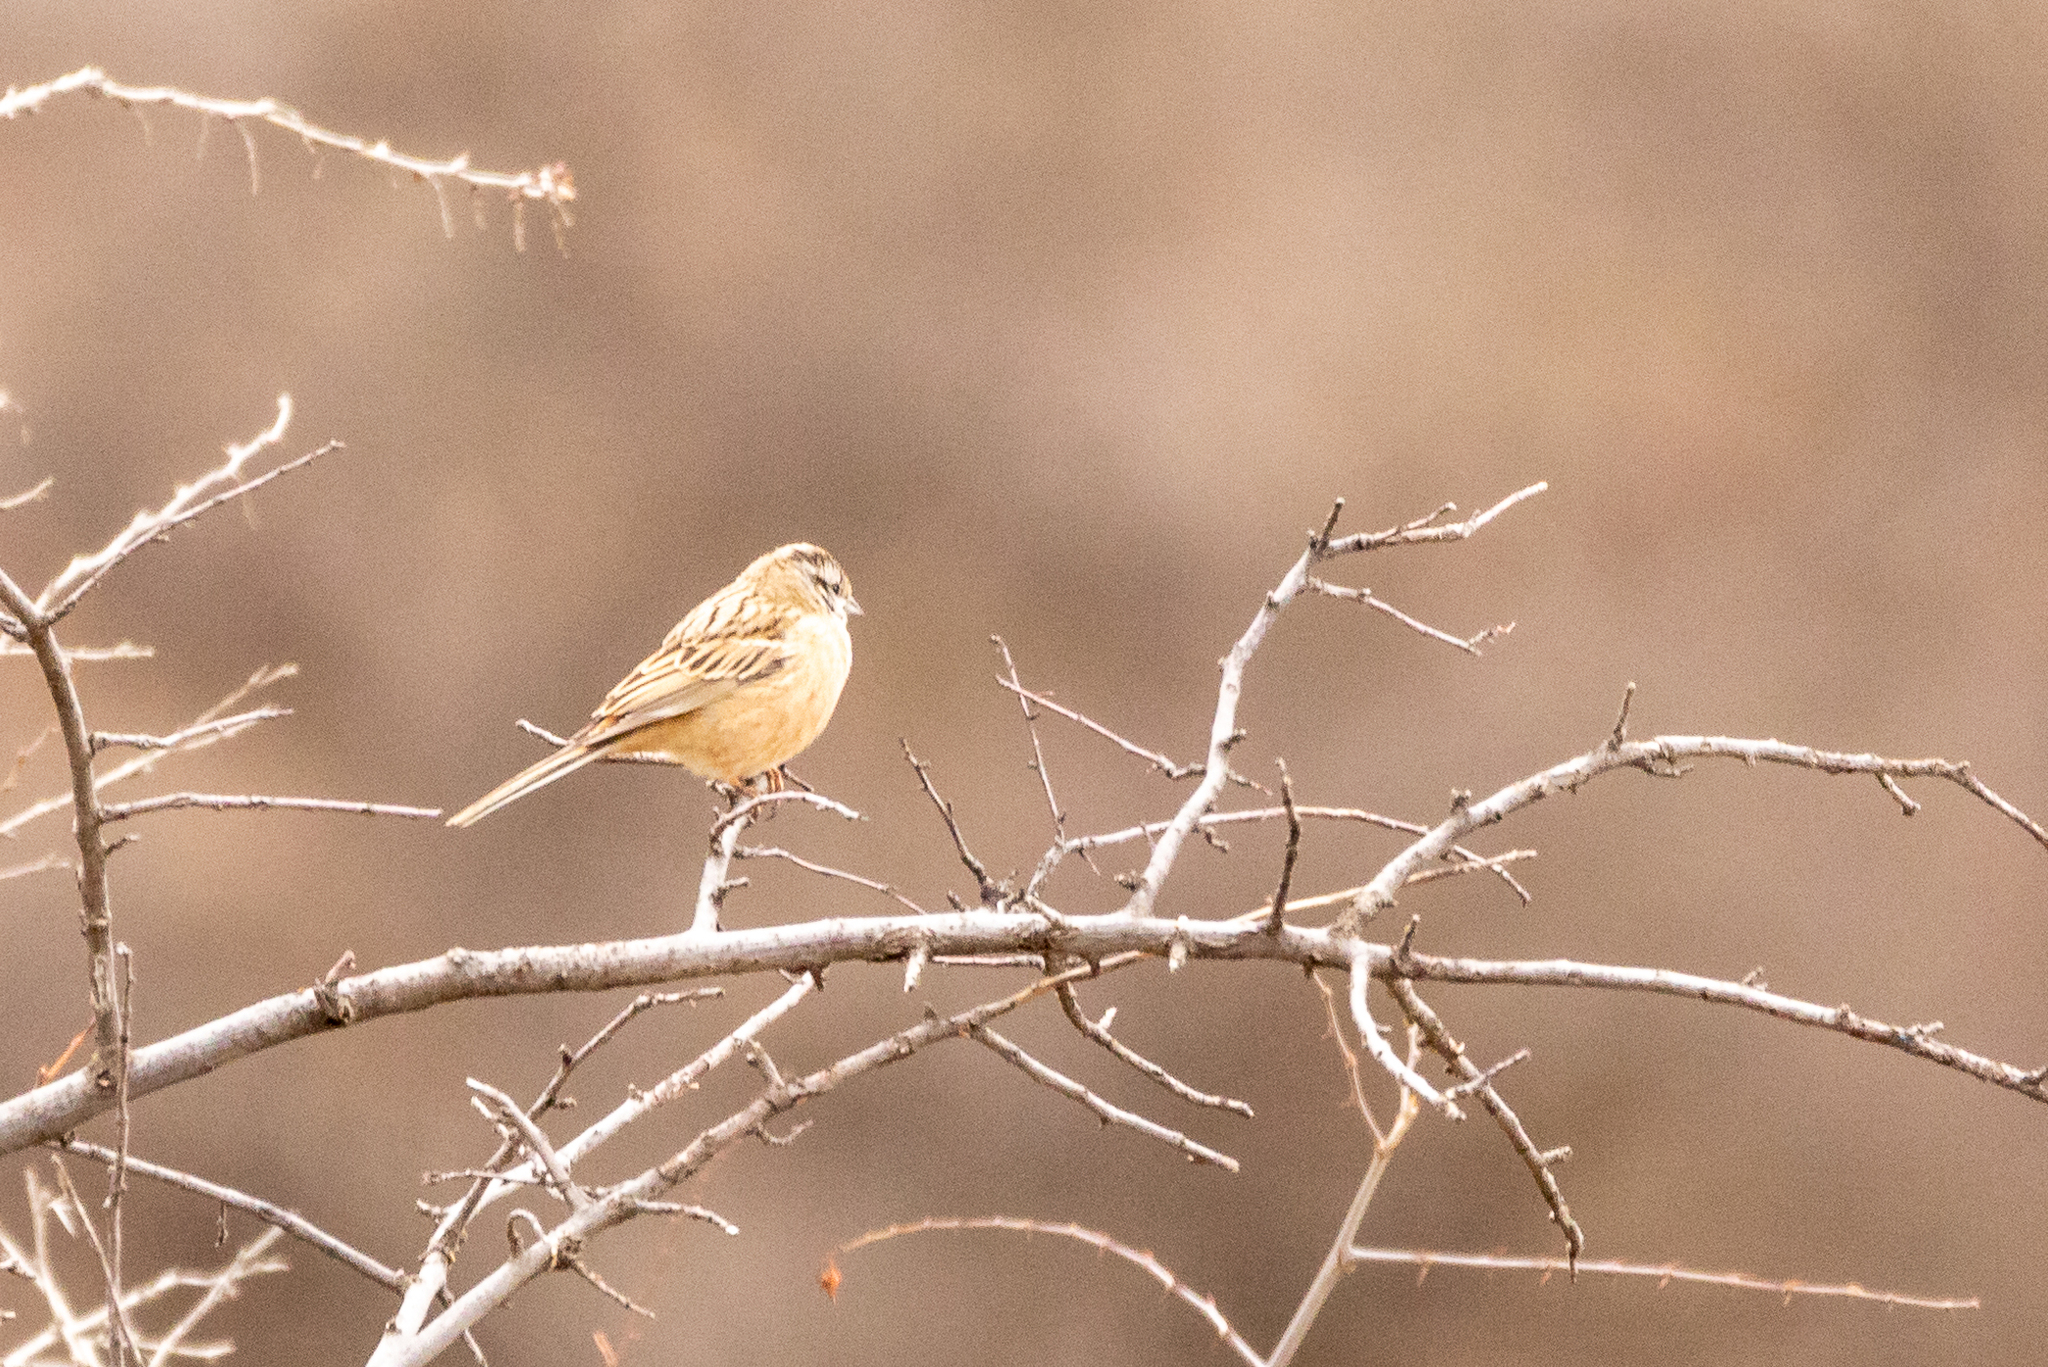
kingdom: Animalia
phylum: Chordata
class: Aves
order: Passeriformes
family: Emberizidae
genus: Emberiza
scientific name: Emberiza cia
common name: Rock bunting
